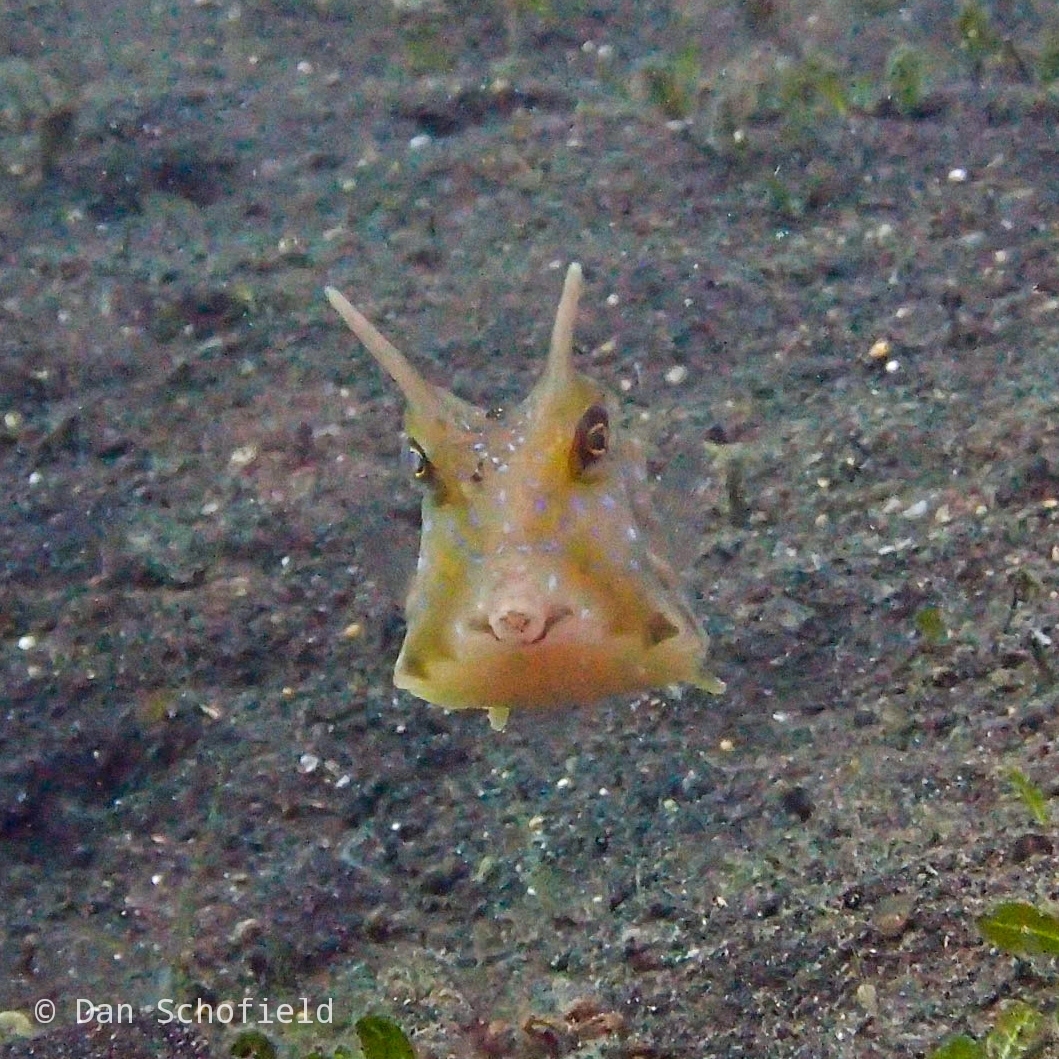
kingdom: Animalia
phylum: Chordata
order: Tetraodontiformes
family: Ostraciidae
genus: Lactoria
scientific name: Lactoria cornuta
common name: Longhorn cowfish
